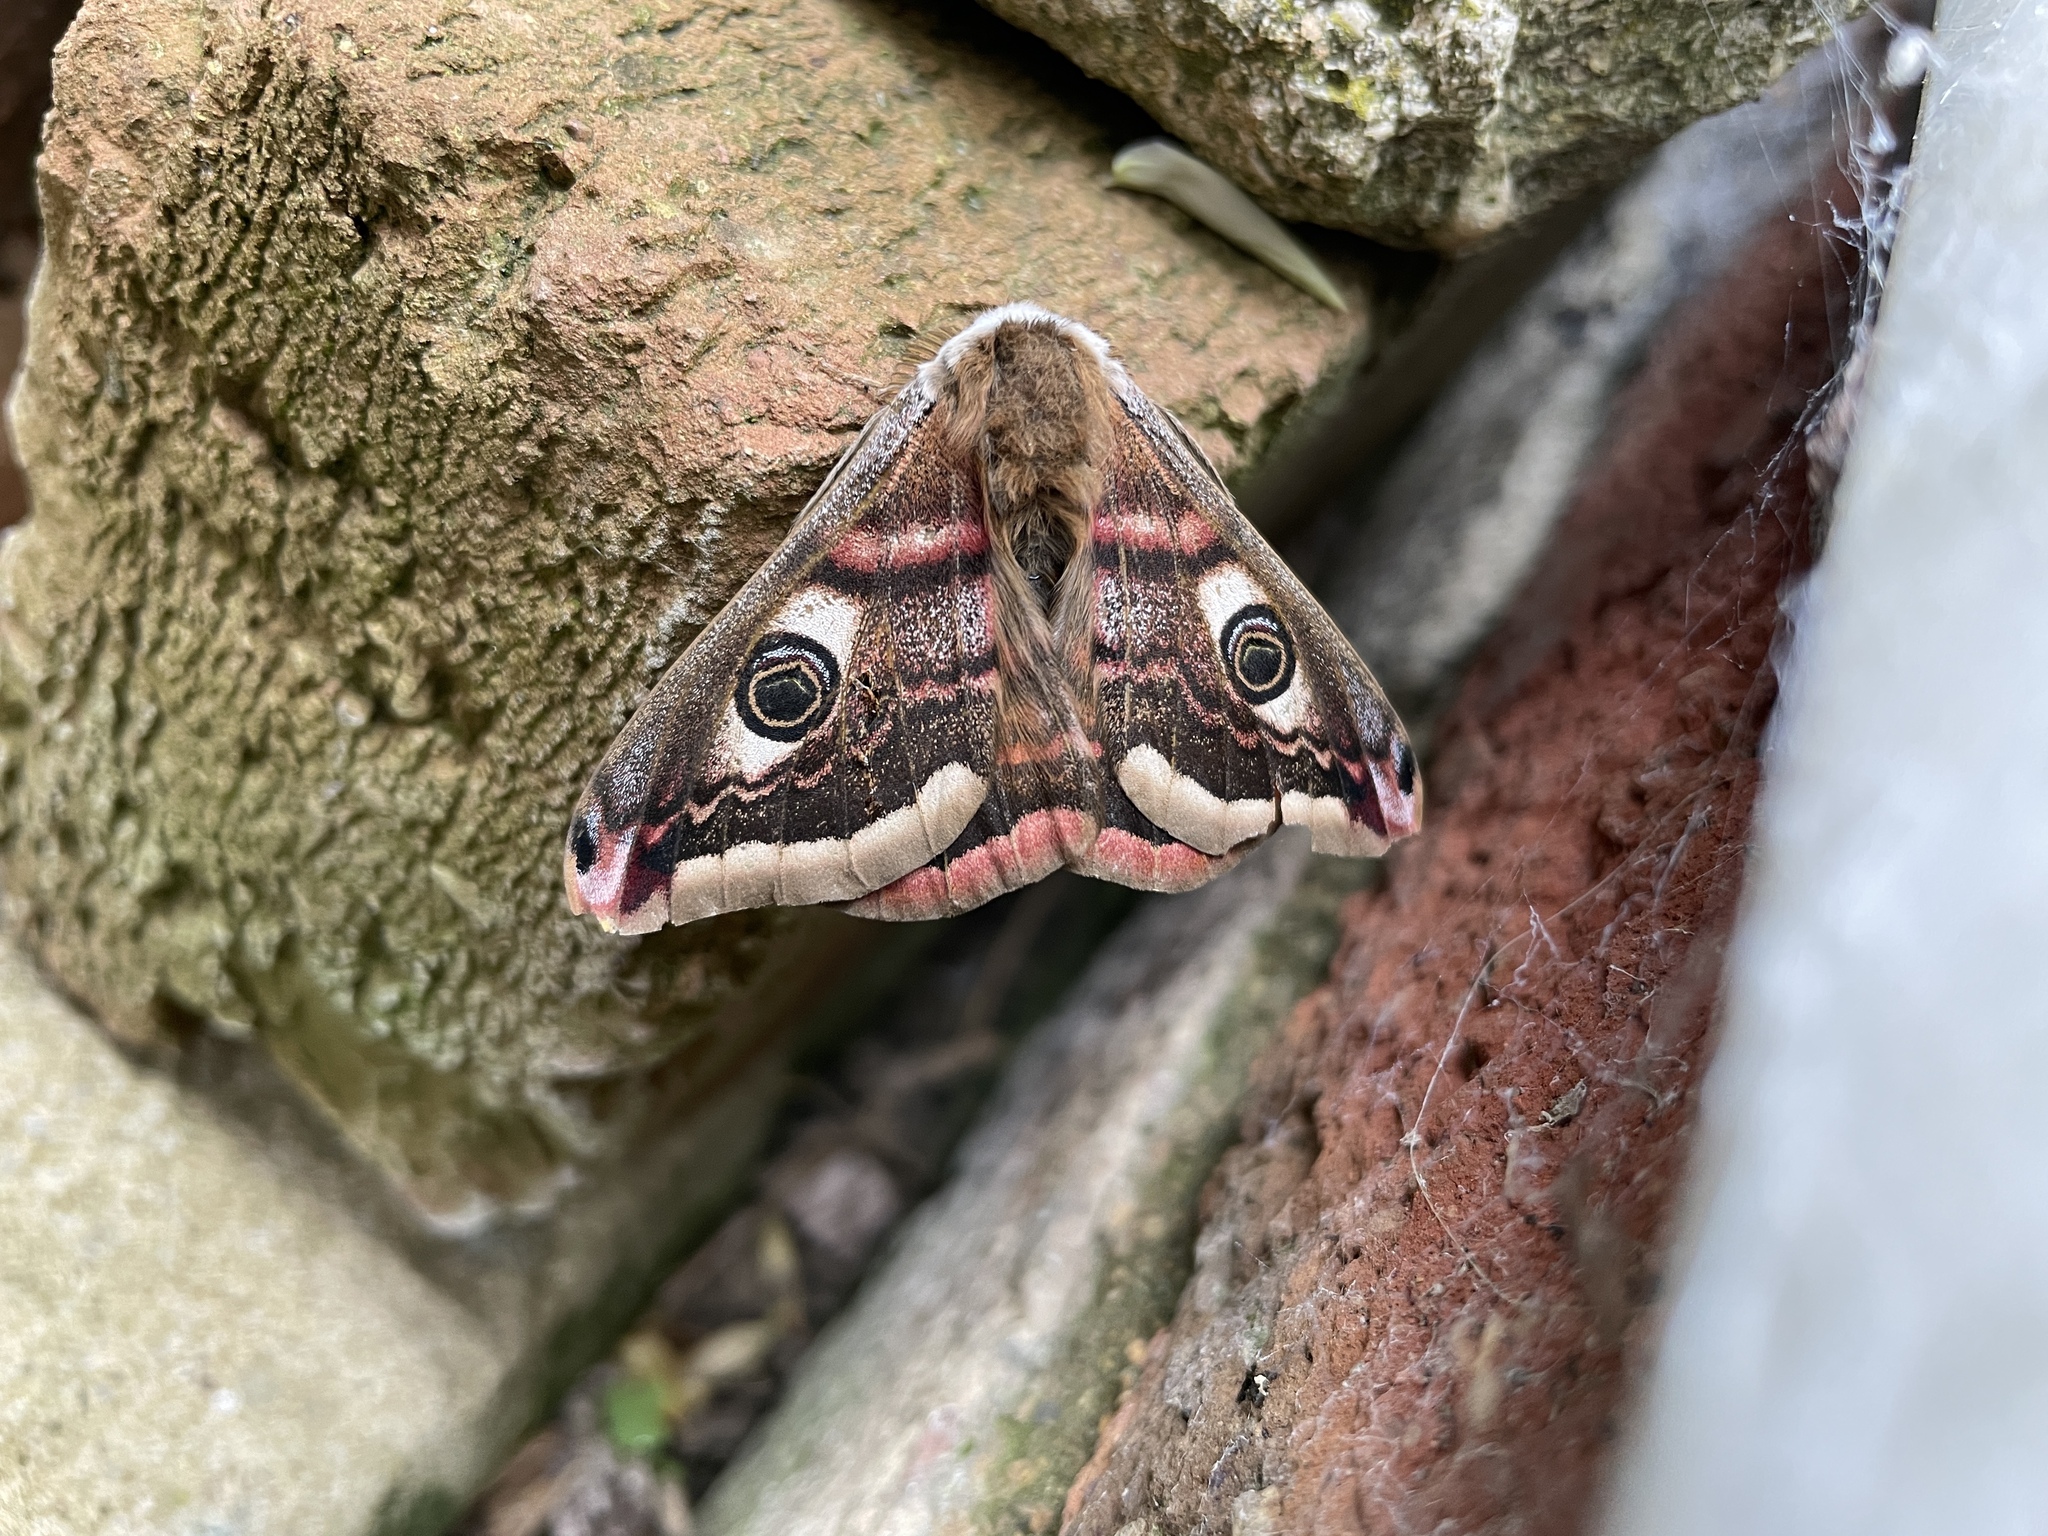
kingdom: Animalia
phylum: Arthropoda
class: Insecta
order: Lepidoptera
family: Saturniidae
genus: Saturnia
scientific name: Saturnia pavonia
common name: Emperor moth
